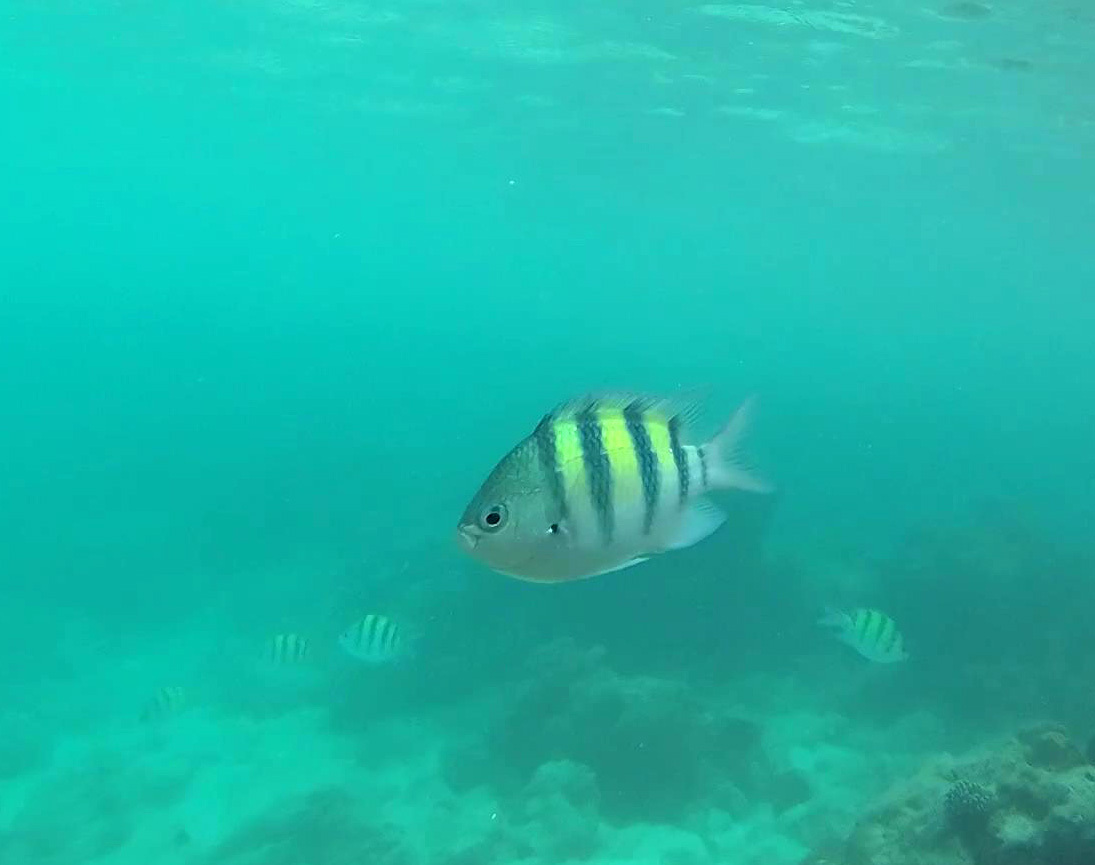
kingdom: Animalia
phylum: Chordata
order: Perciformes
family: Pomacentridae
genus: Abudefduf
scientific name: Abudefduf vaigiensis
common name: Indo-pacific sergeant
